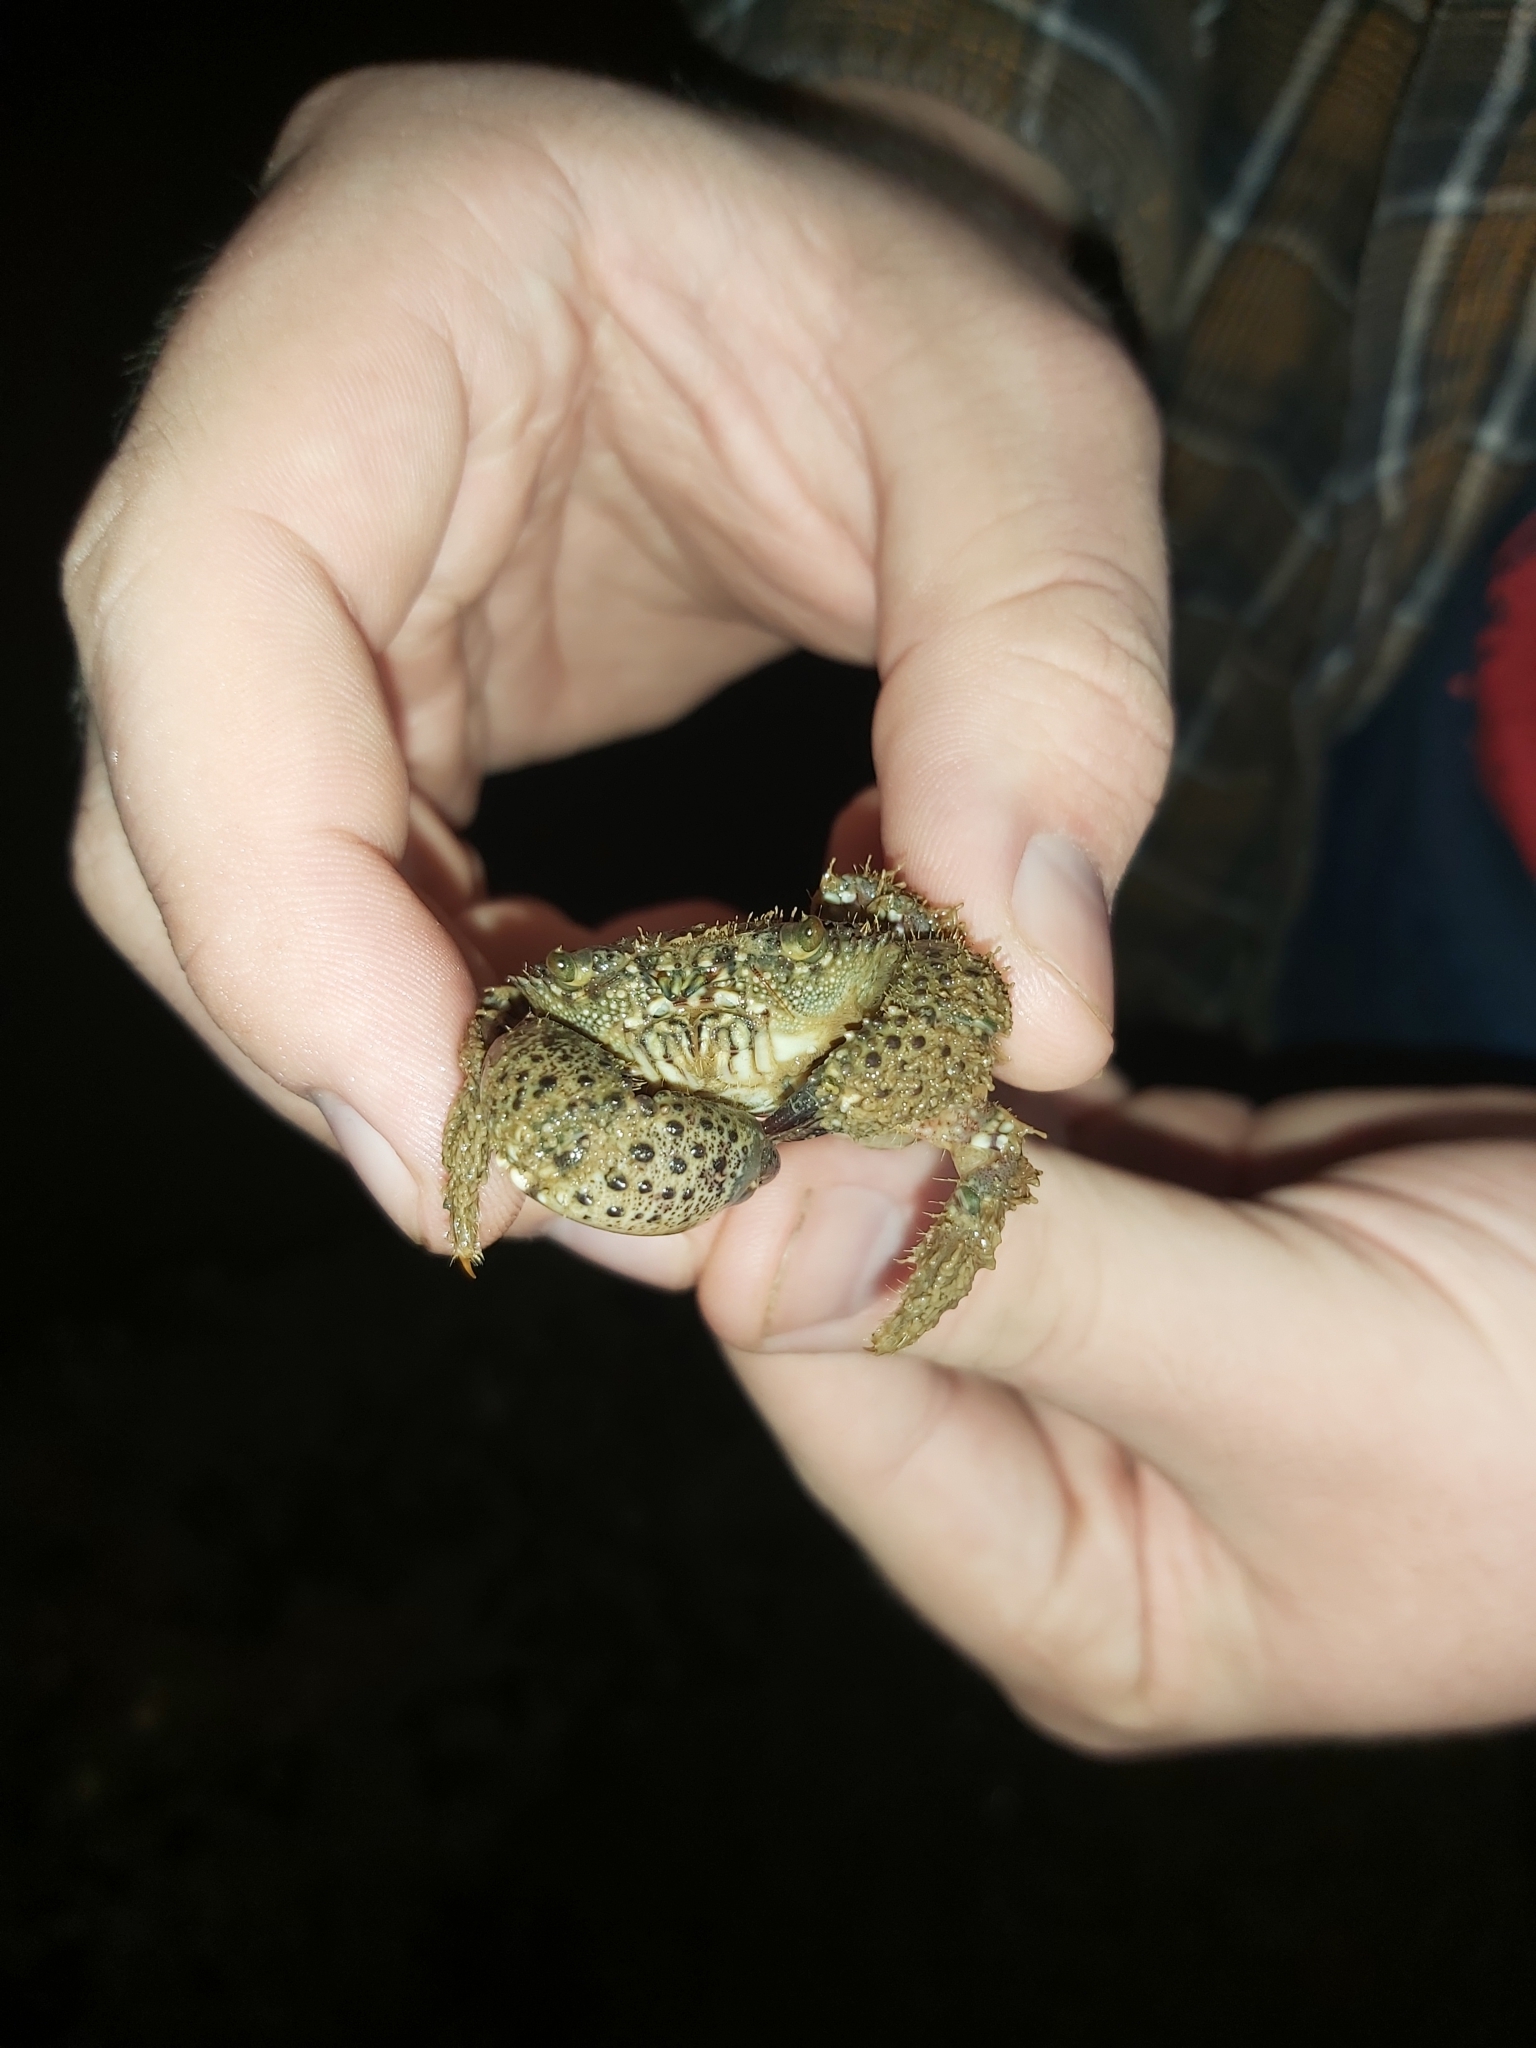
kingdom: Animalia
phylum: Arthropoda
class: Malacostraca
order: Decapoda
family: Eriphiidae
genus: Eriphia
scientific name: Eriphia verrucosa
